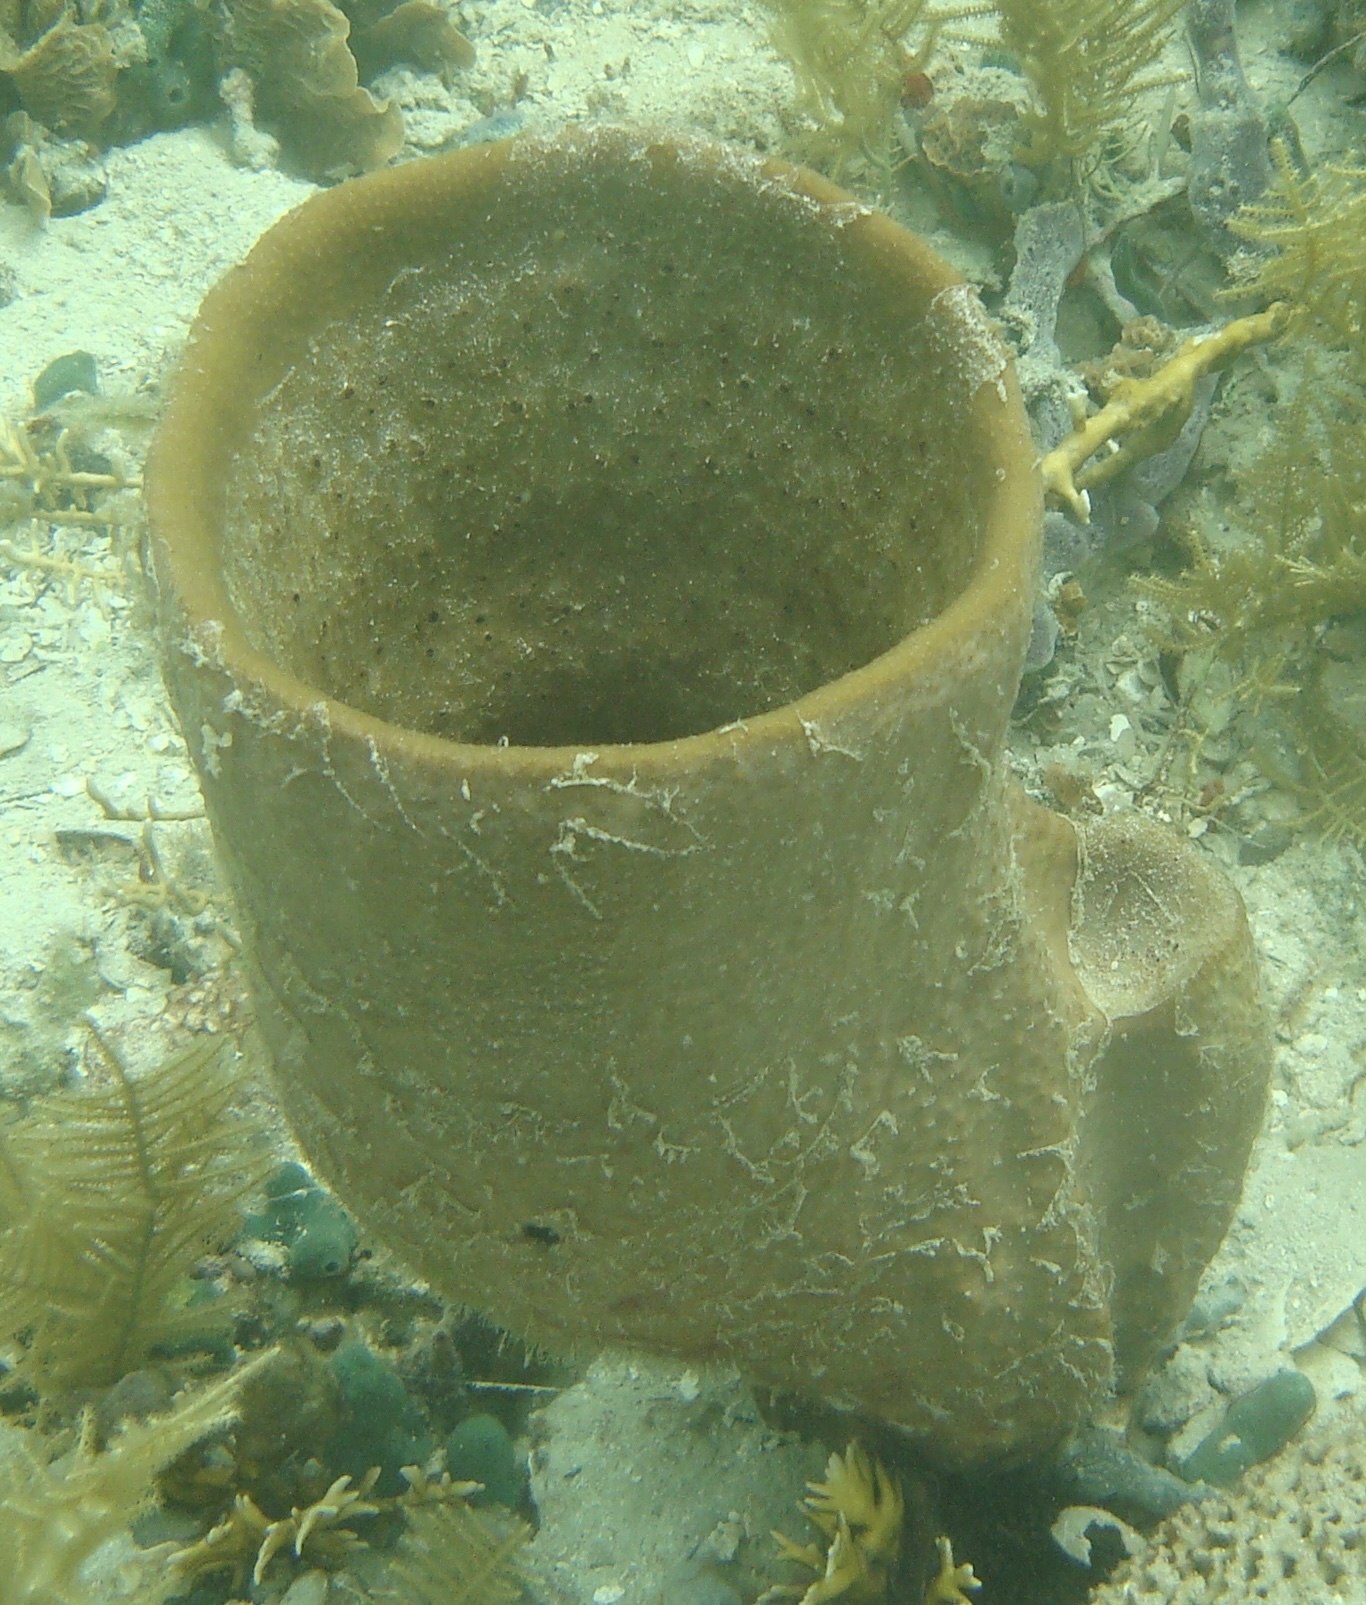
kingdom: Animalia
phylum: Porifera
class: Demospongiae
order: Dictyoceratida
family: Irciniidae
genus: Ircinia
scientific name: Ircinia campana
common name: Vase sponge
